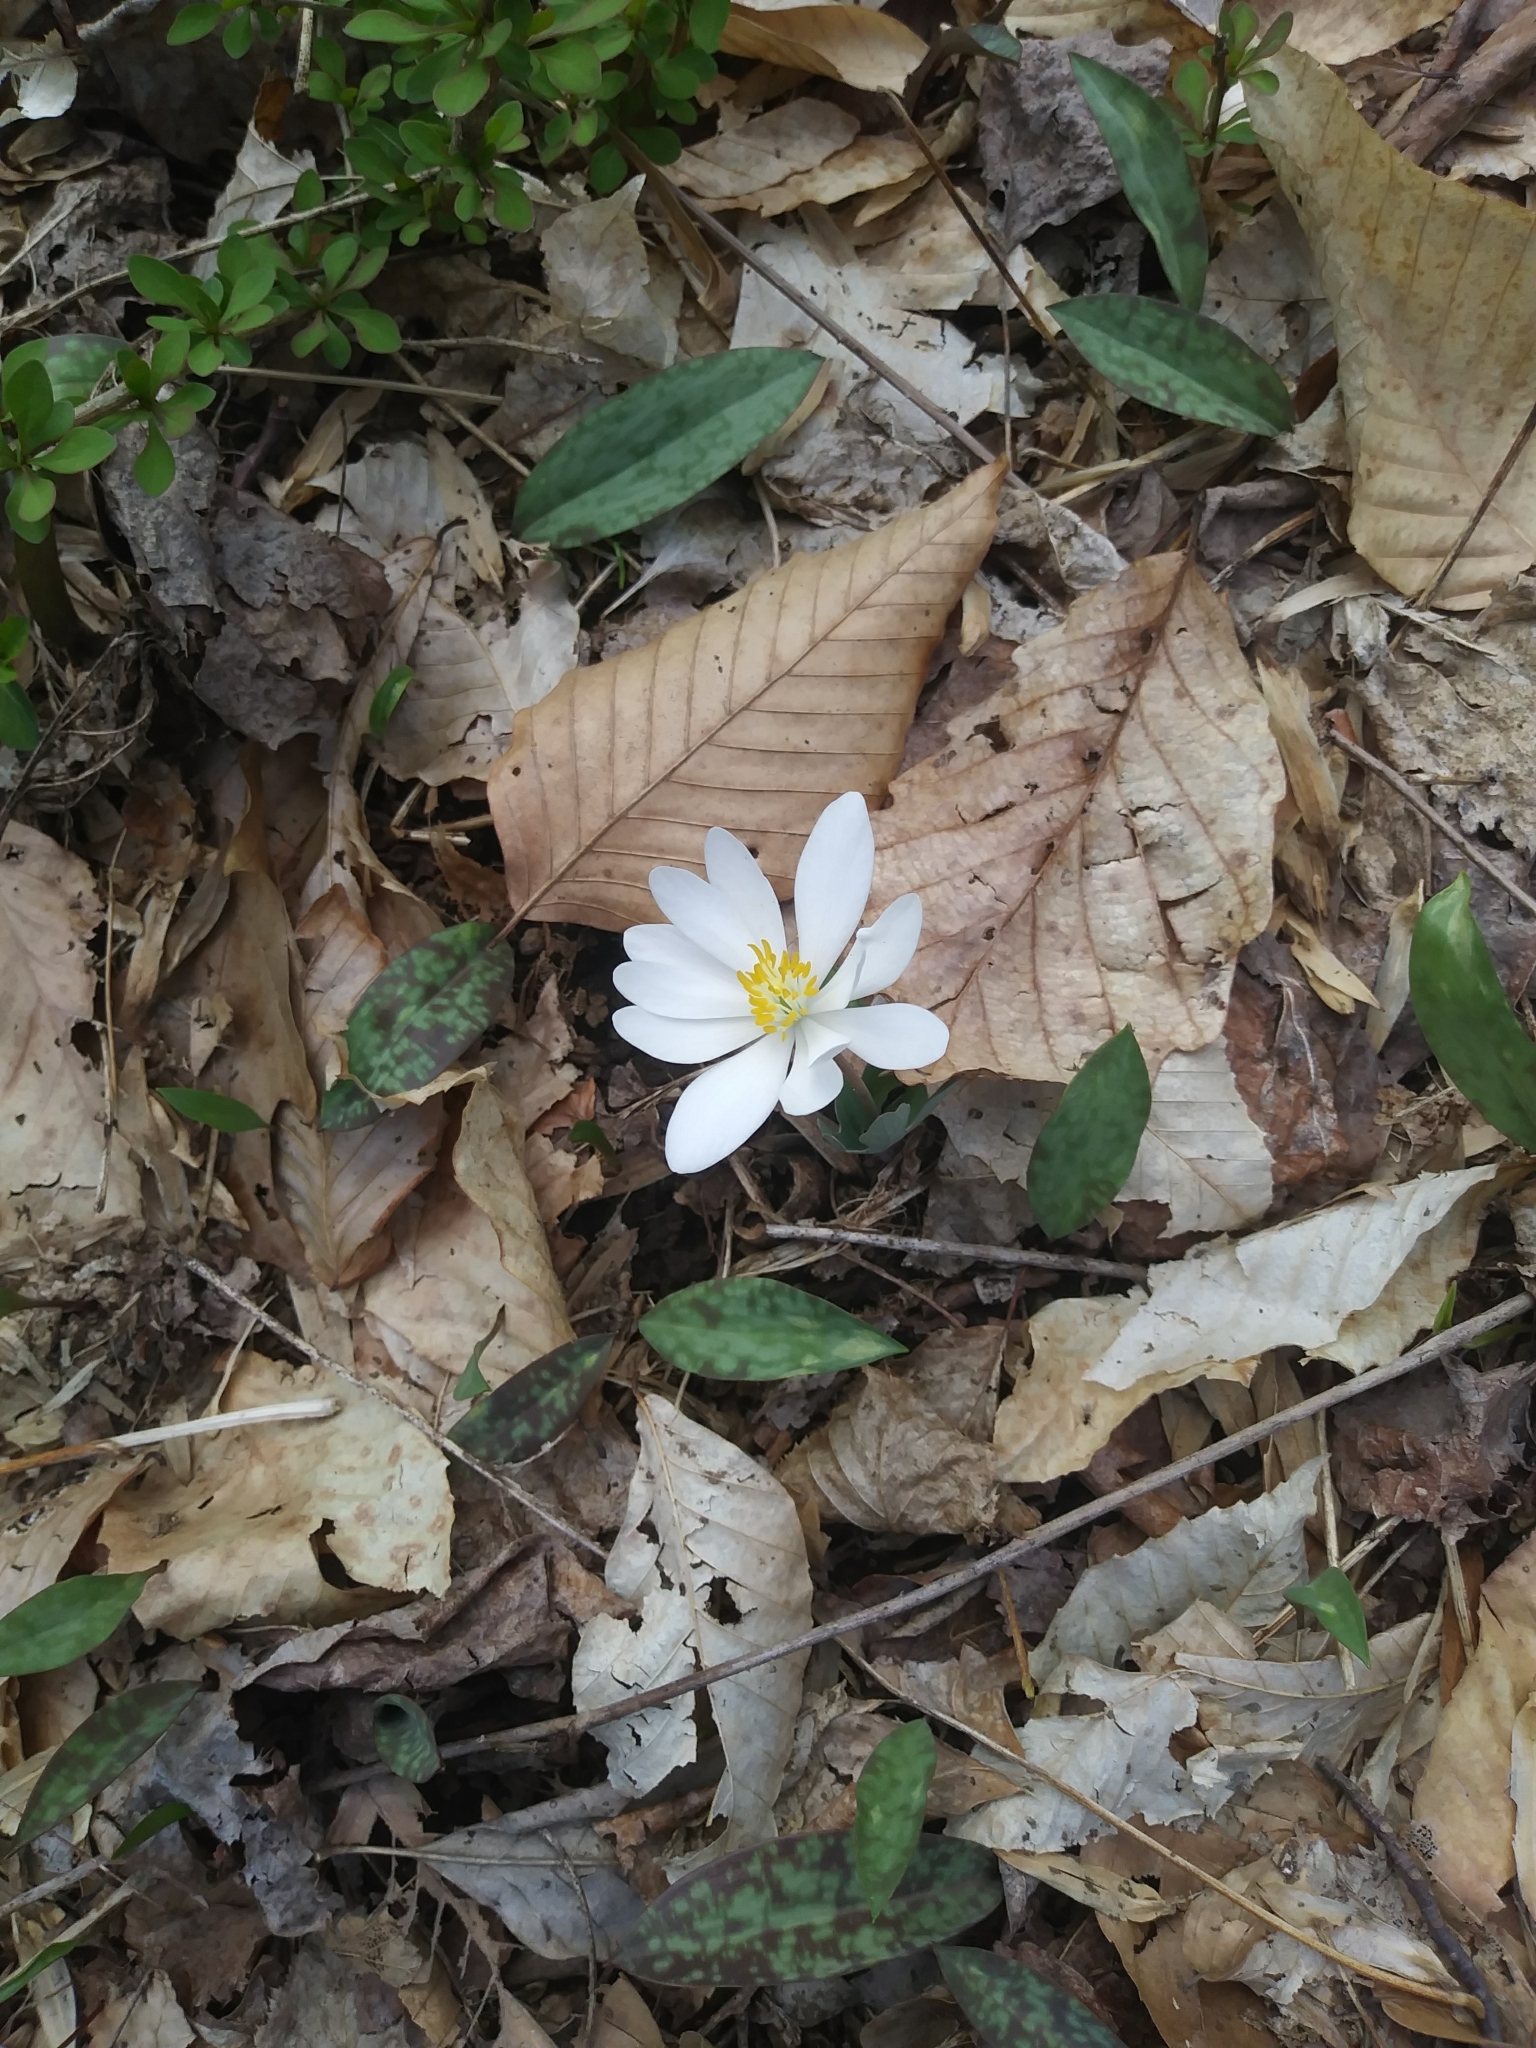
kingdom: Plantae
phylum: Tracheophyta
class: Magnoliopsida
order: Ranunculales
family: Papaveraceae
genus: Sanguinaria
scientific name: Sanguinaria canadensis
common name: Bloodroot
